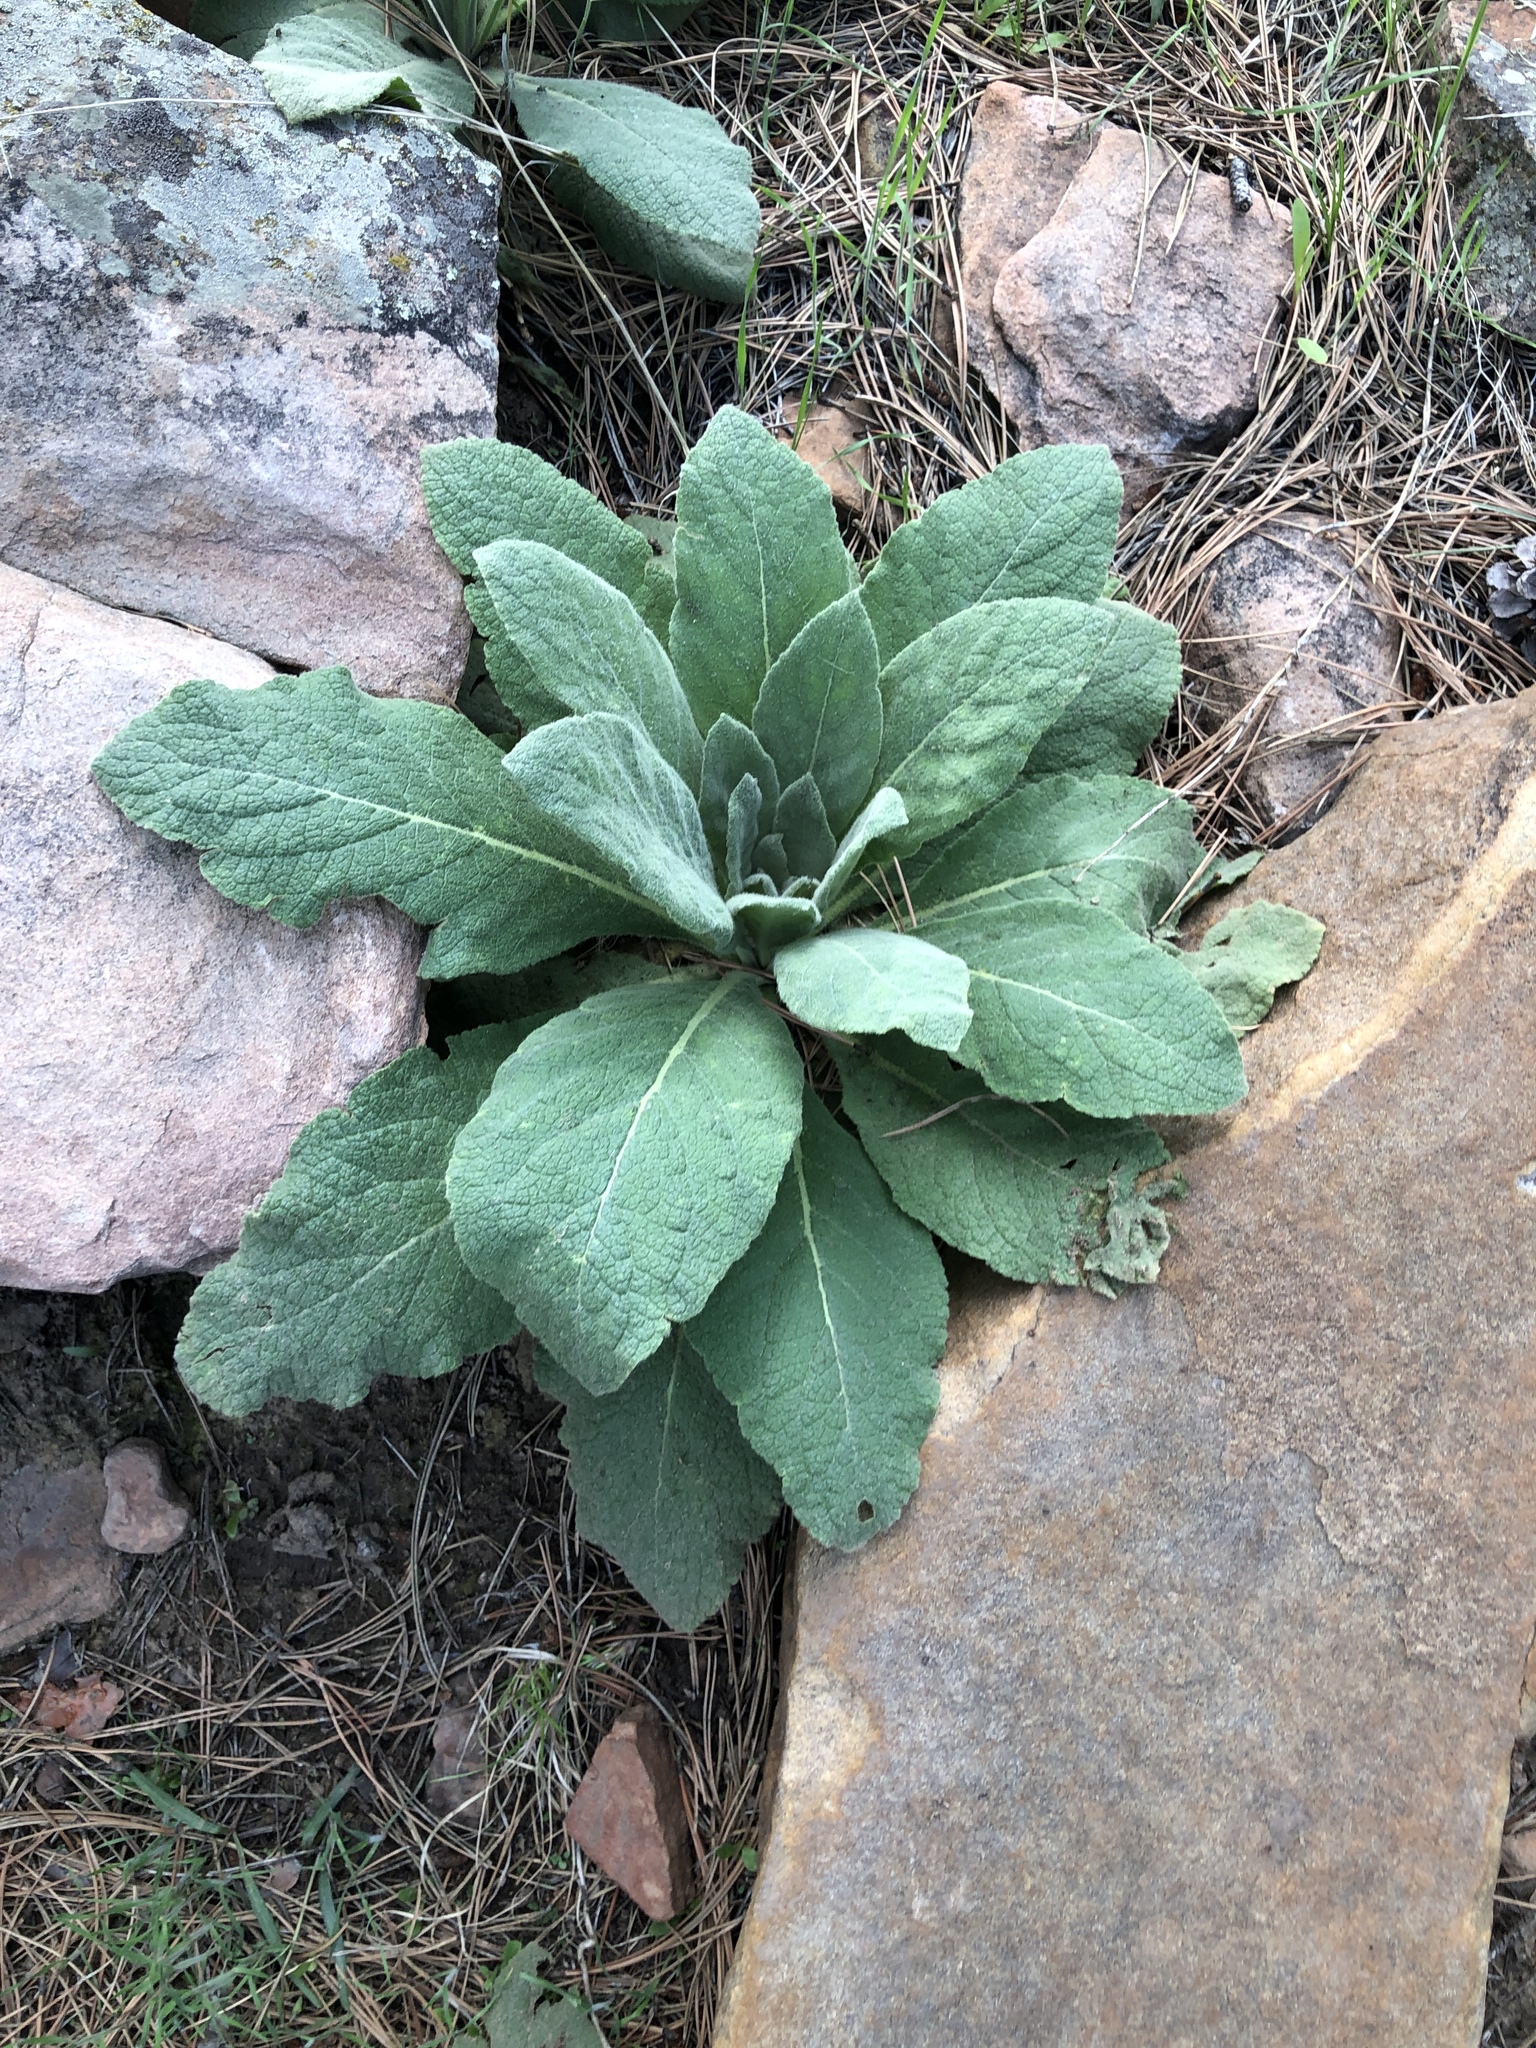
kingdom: Plantae
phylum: Tracheophyta
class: Magnoliopsida
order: Lamiales
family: Scrophulariaceae
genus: Verbascum
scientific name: Verbascum thapsus
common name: Common mullein
